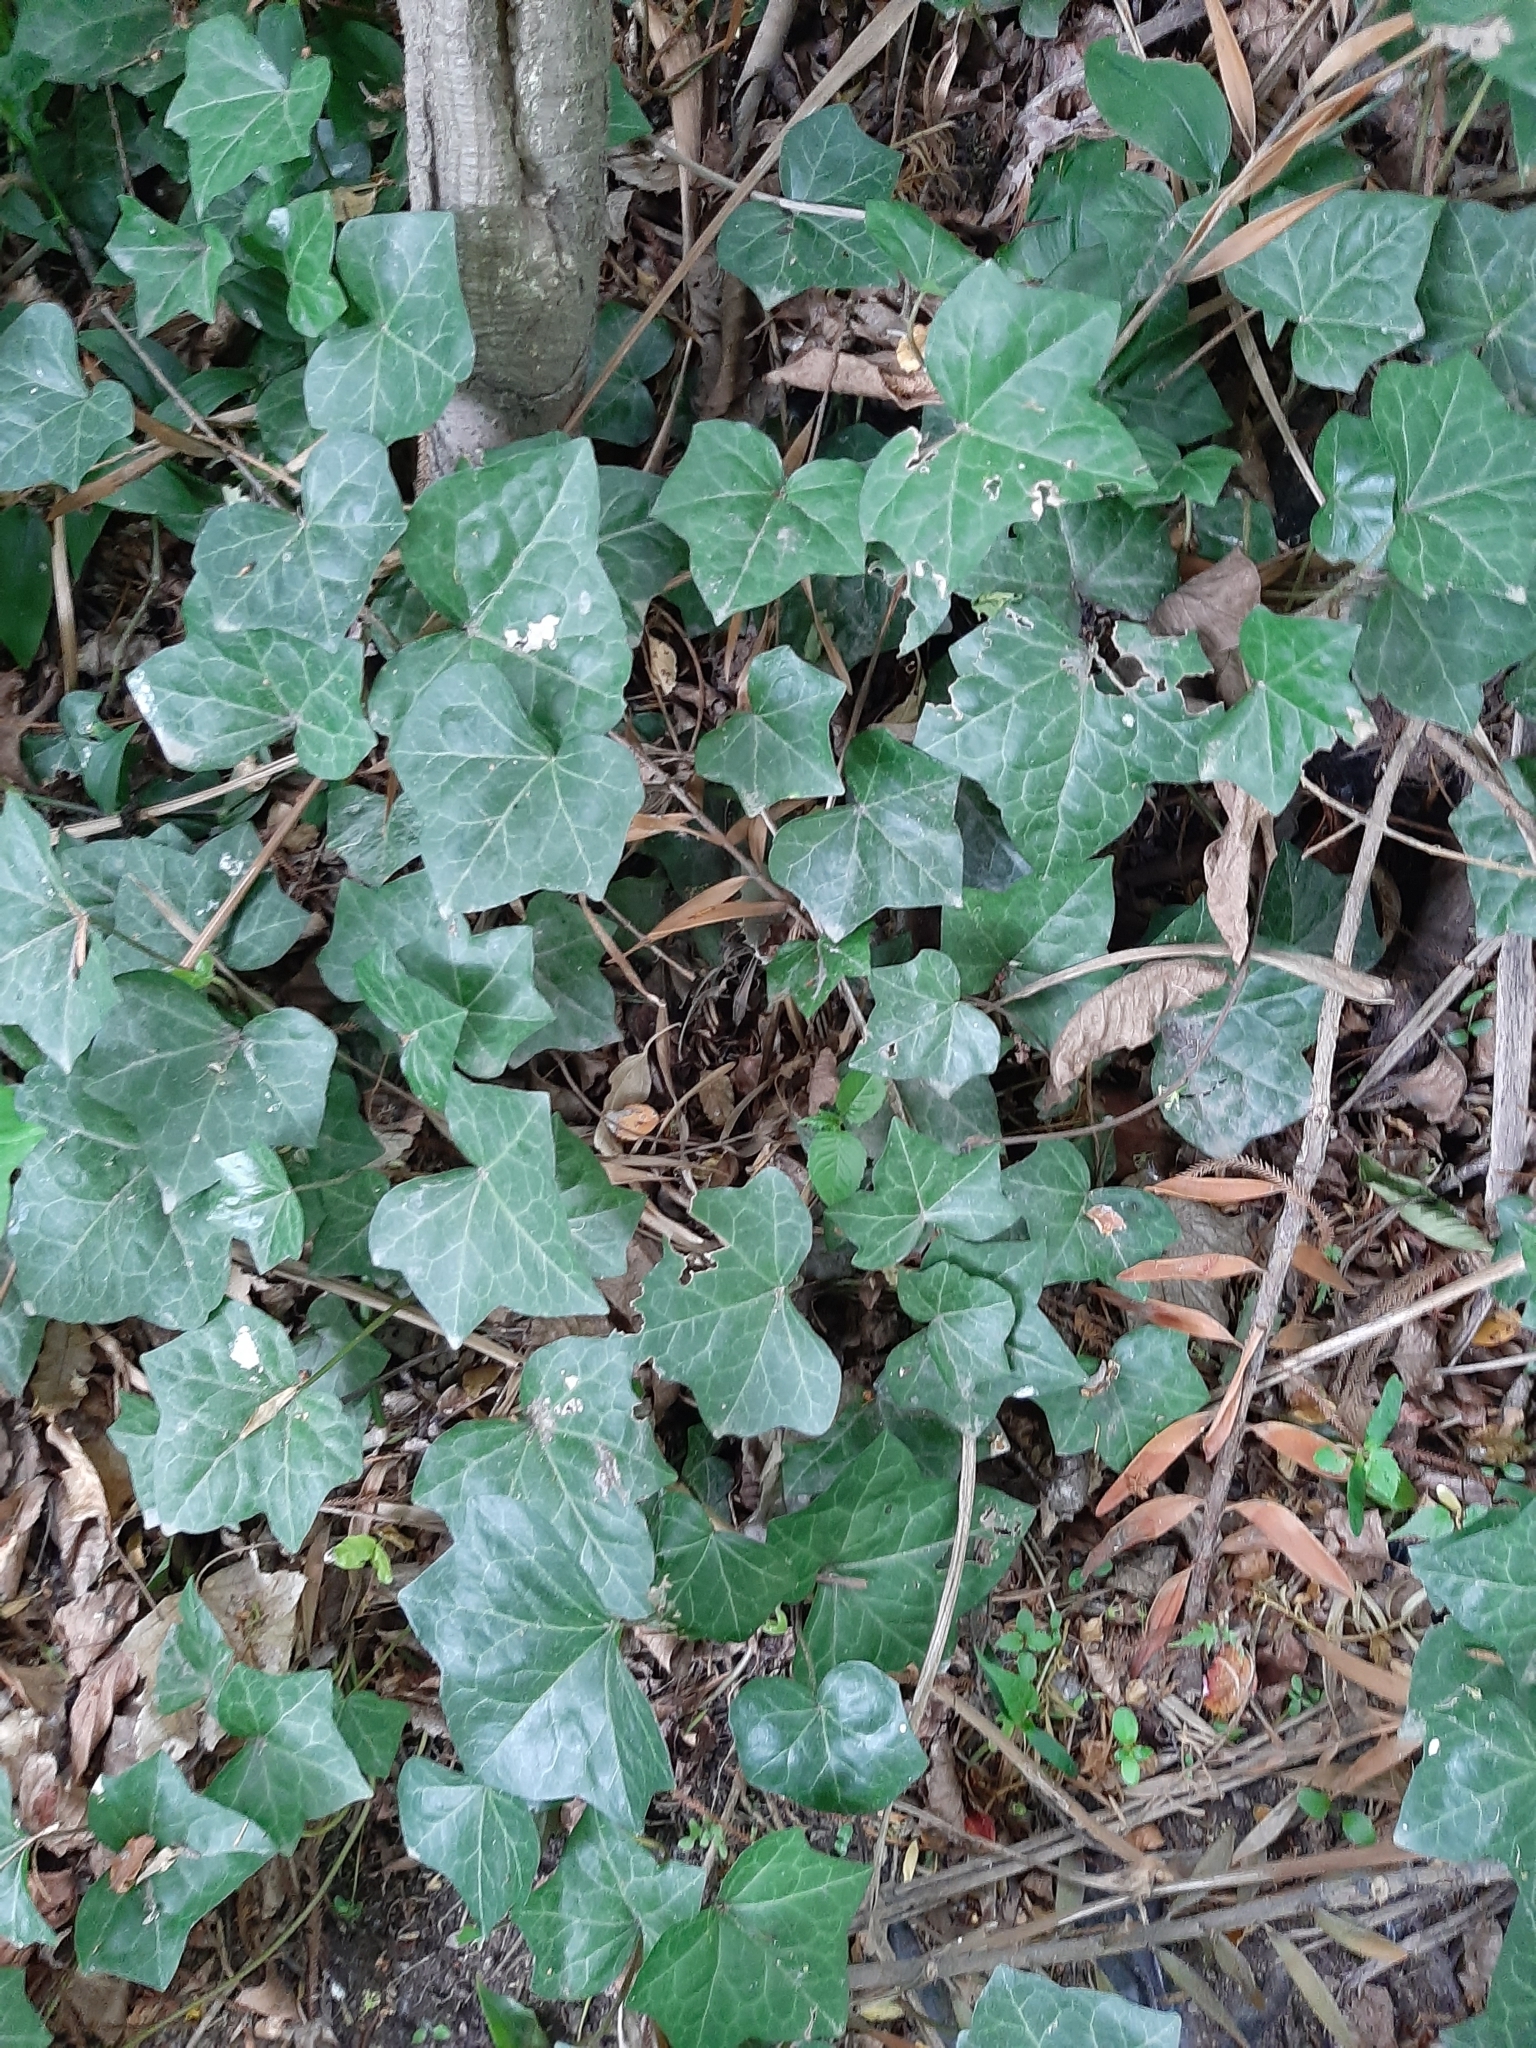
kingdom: Plantae
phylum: Tracheophyta
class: Magnoliopsida
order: Apiales
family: Araliaceae
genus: Hedera
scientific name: Hedera helix
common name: Ivy
